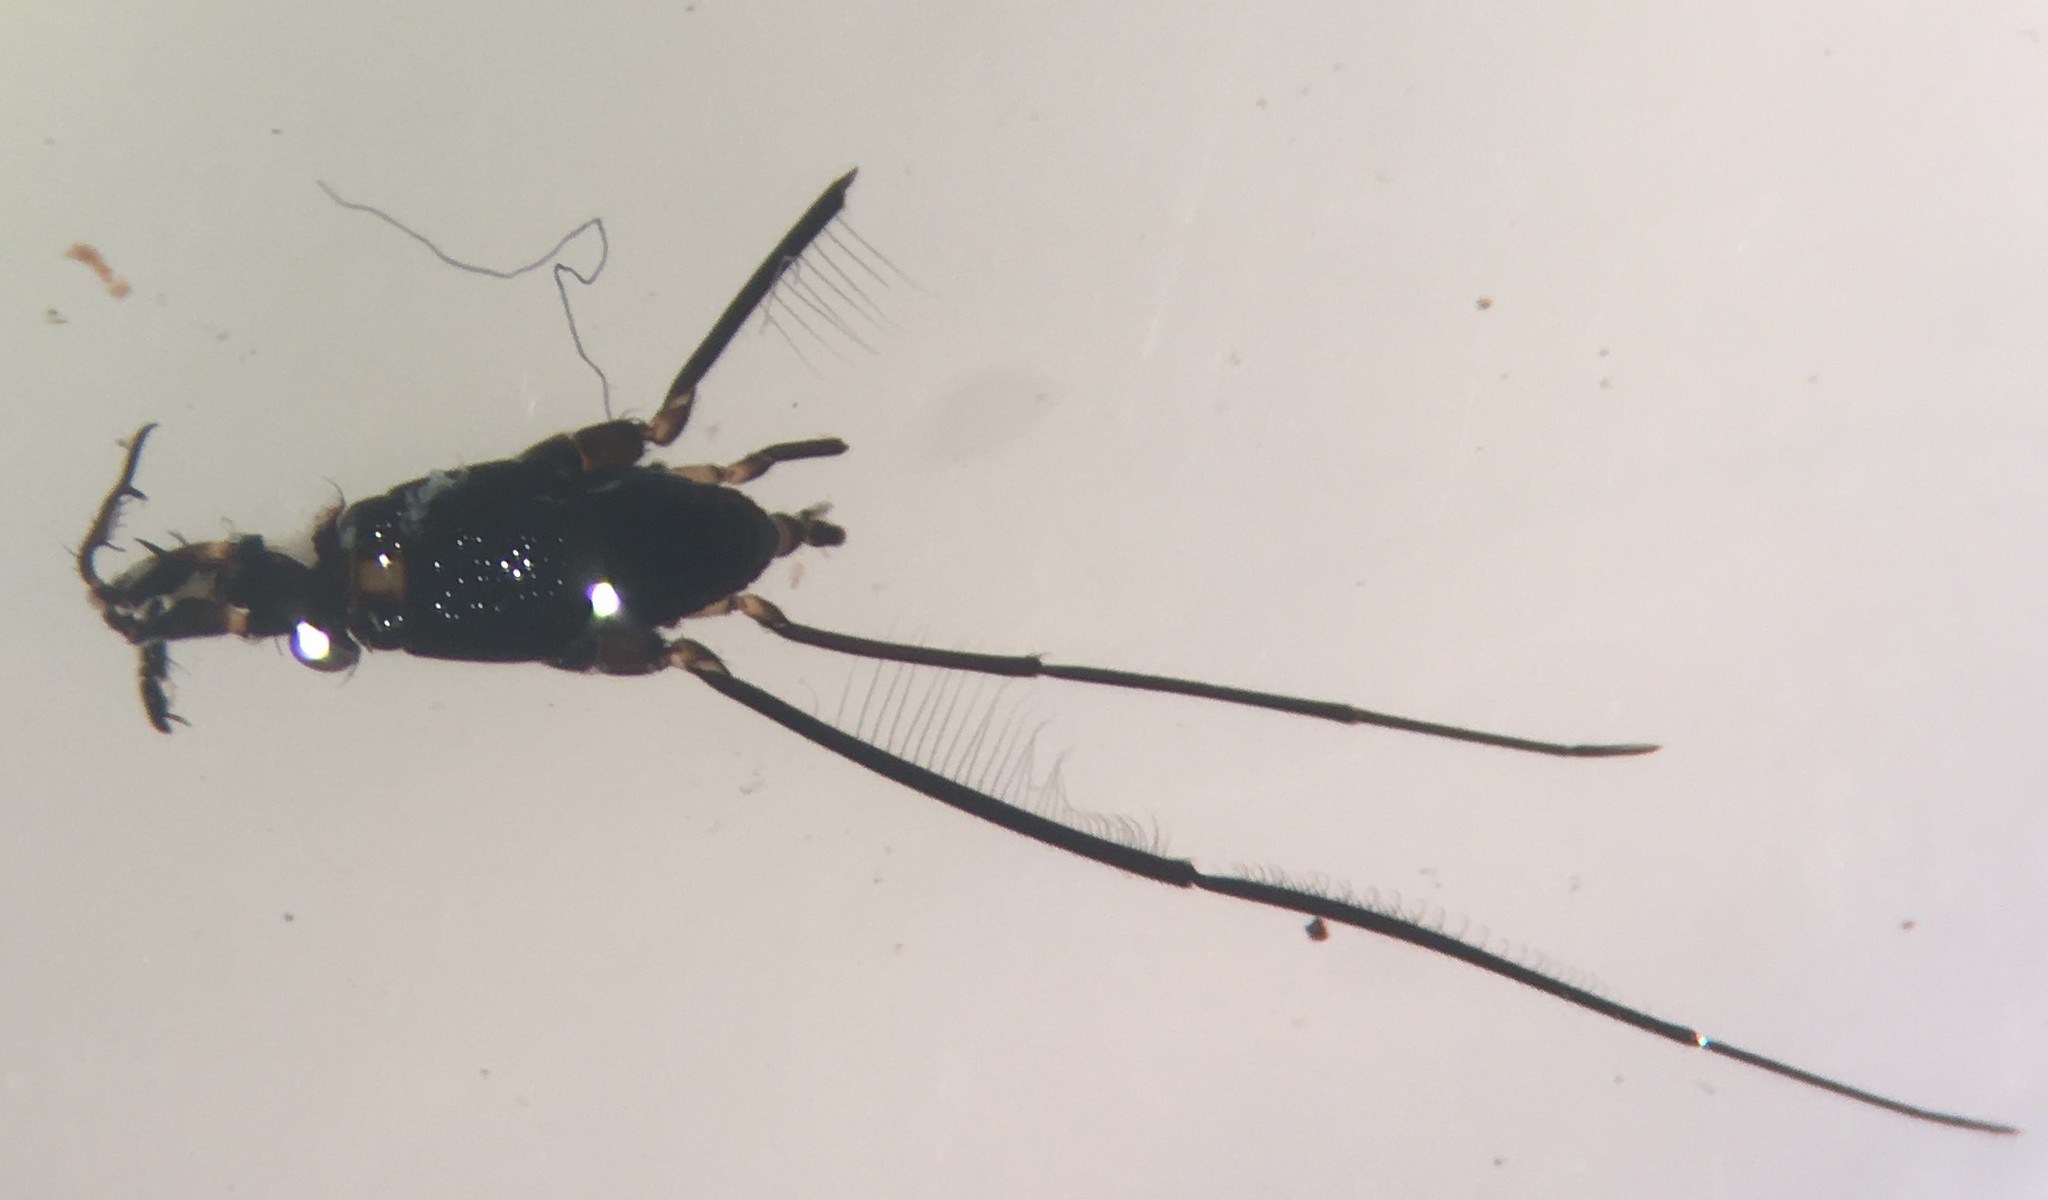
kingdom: Animalia
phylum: Arthropoda
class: Insecta
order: Hemiptera
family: Gerridae
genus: Rheumatobates
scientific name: Rheumatobates tenuipes
